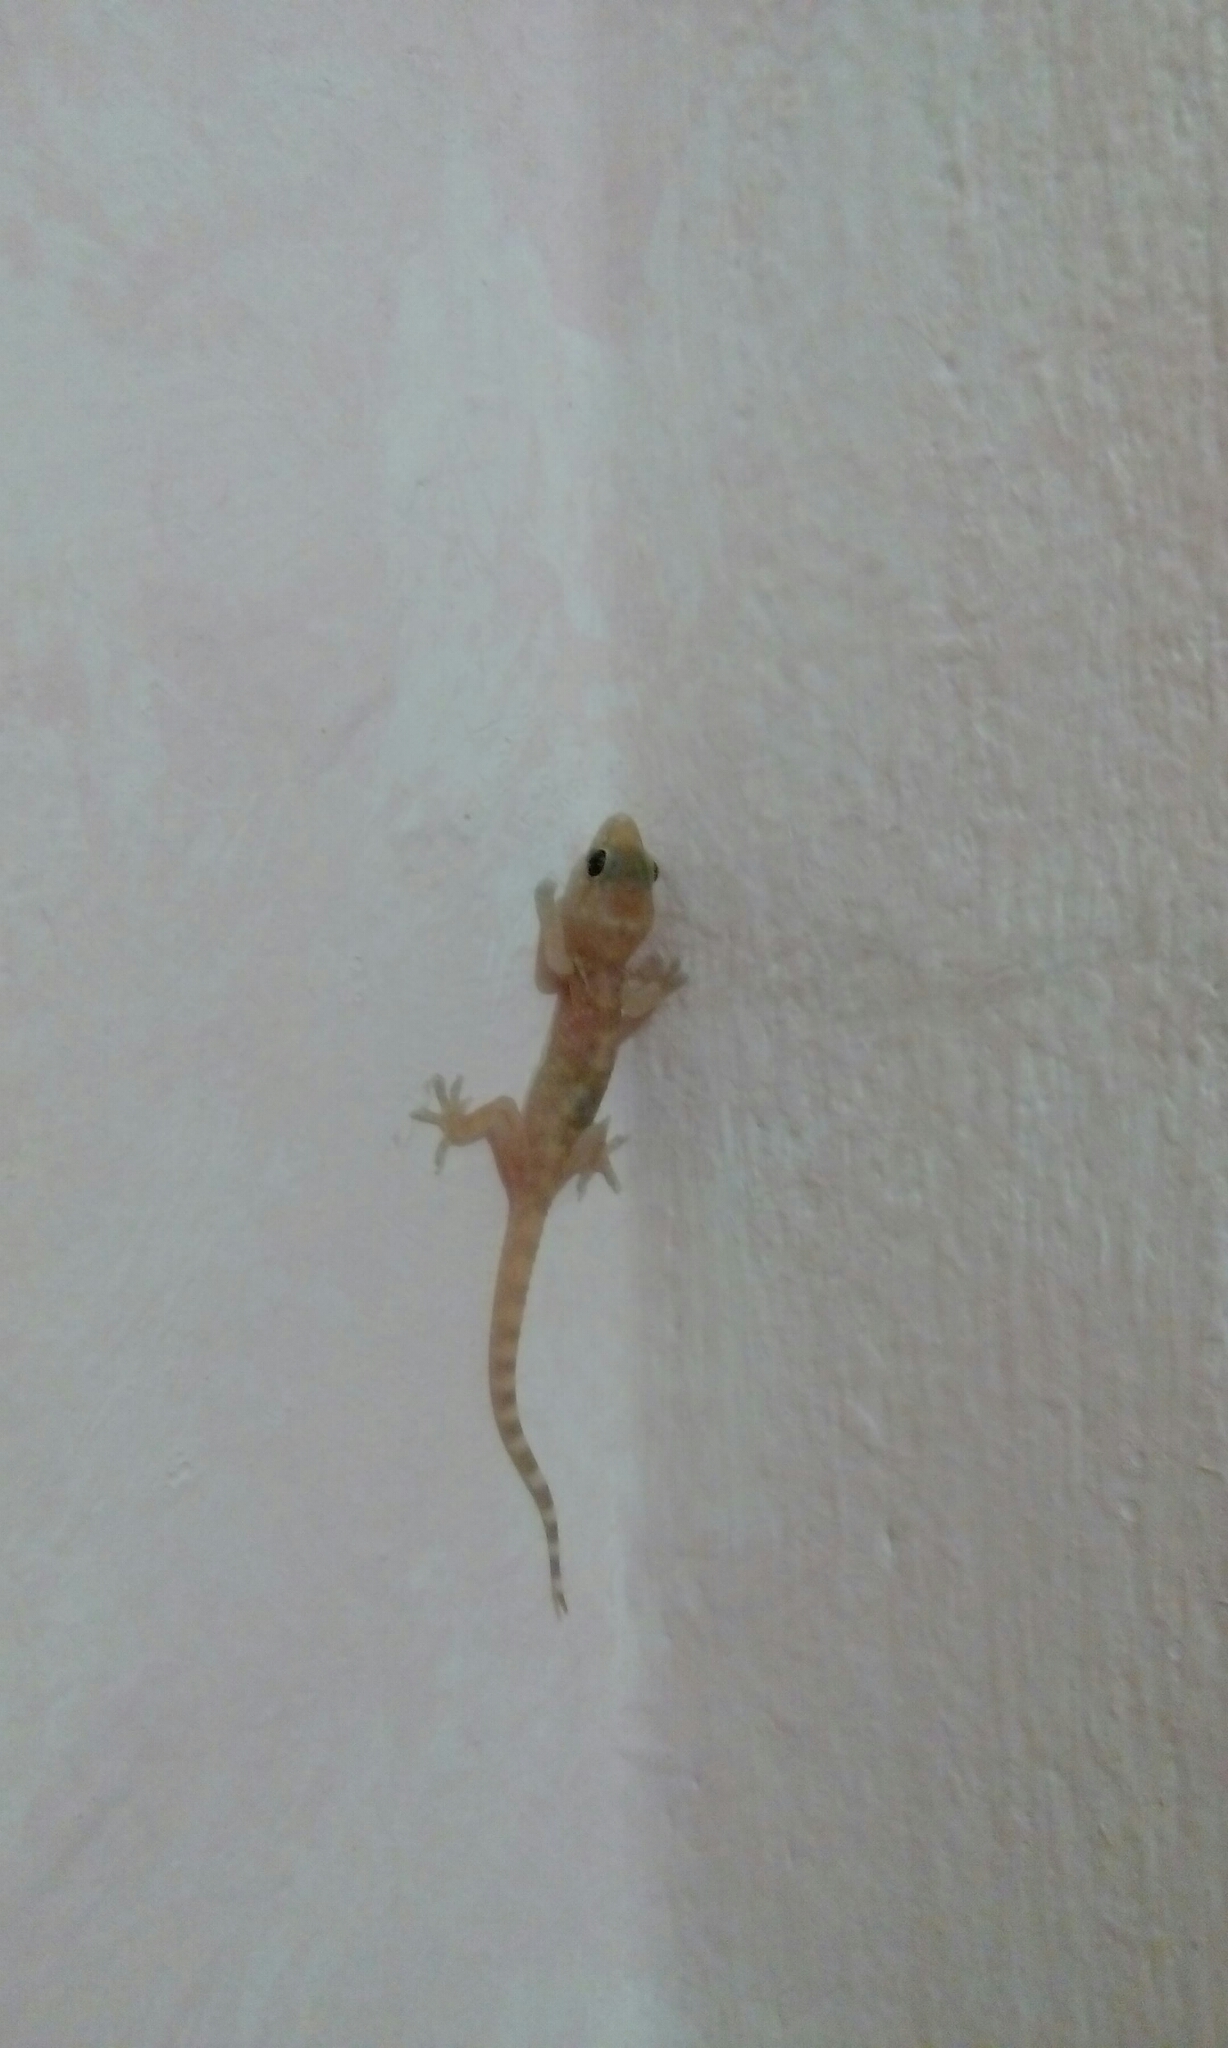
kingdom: Animalia
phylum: Chordata
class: Squamata
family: Gekkonidae
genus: Hemidactylus
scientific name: Hemidactylus turcicus
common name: Turkish gecko
